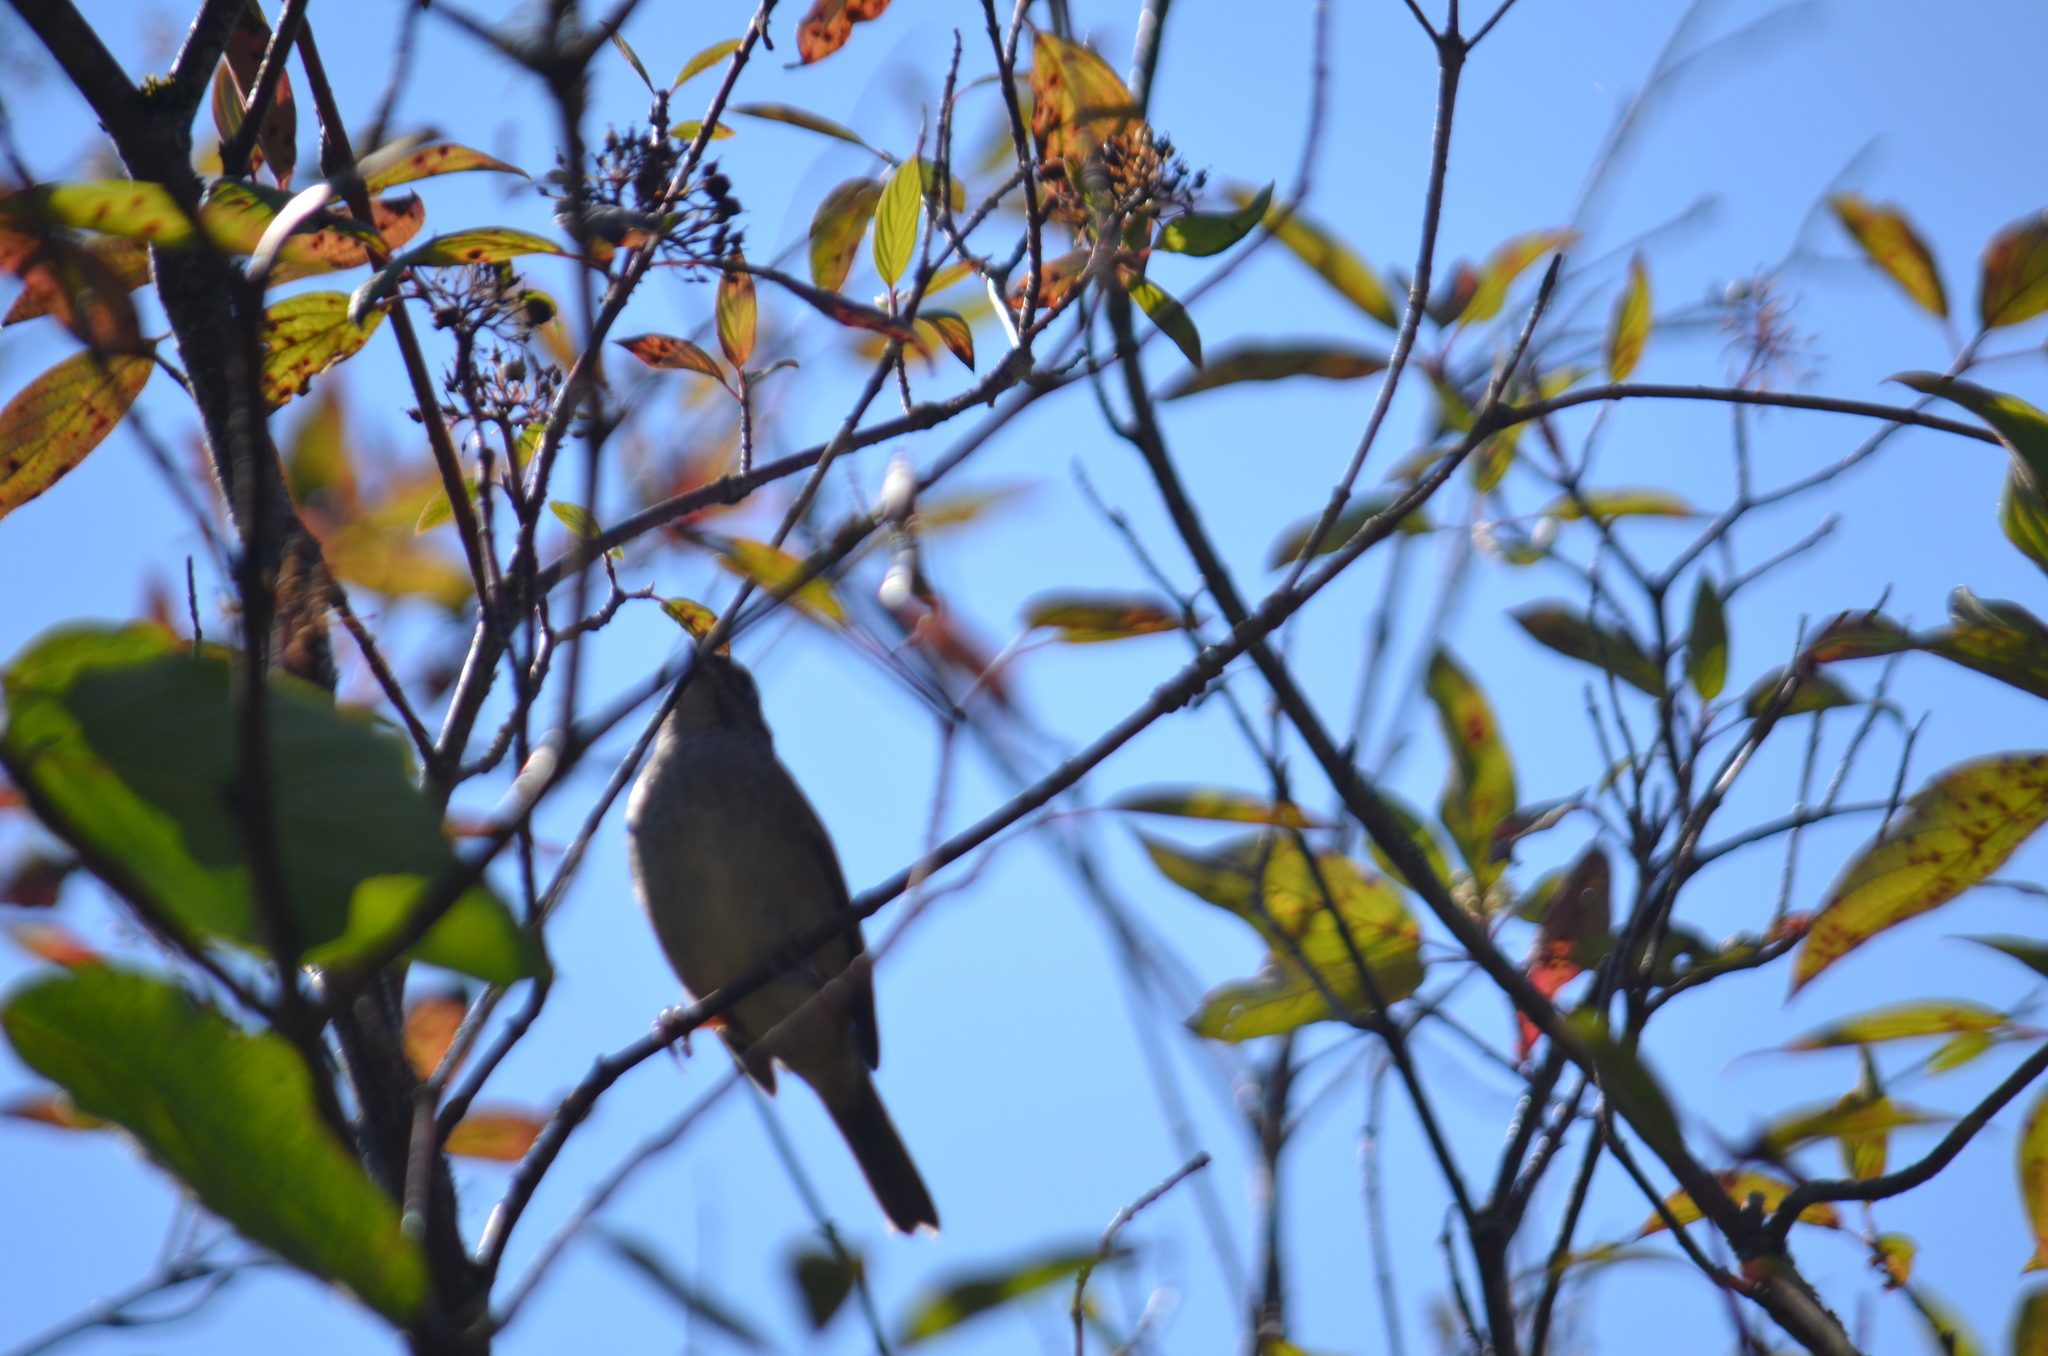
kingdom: Animalia
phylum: Chordata
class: Aves
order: Passeriformes
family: Passerellidae
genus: Zonotrichia
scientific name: Zonotrichia atricapilla
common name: Golden-crowned sparrow
